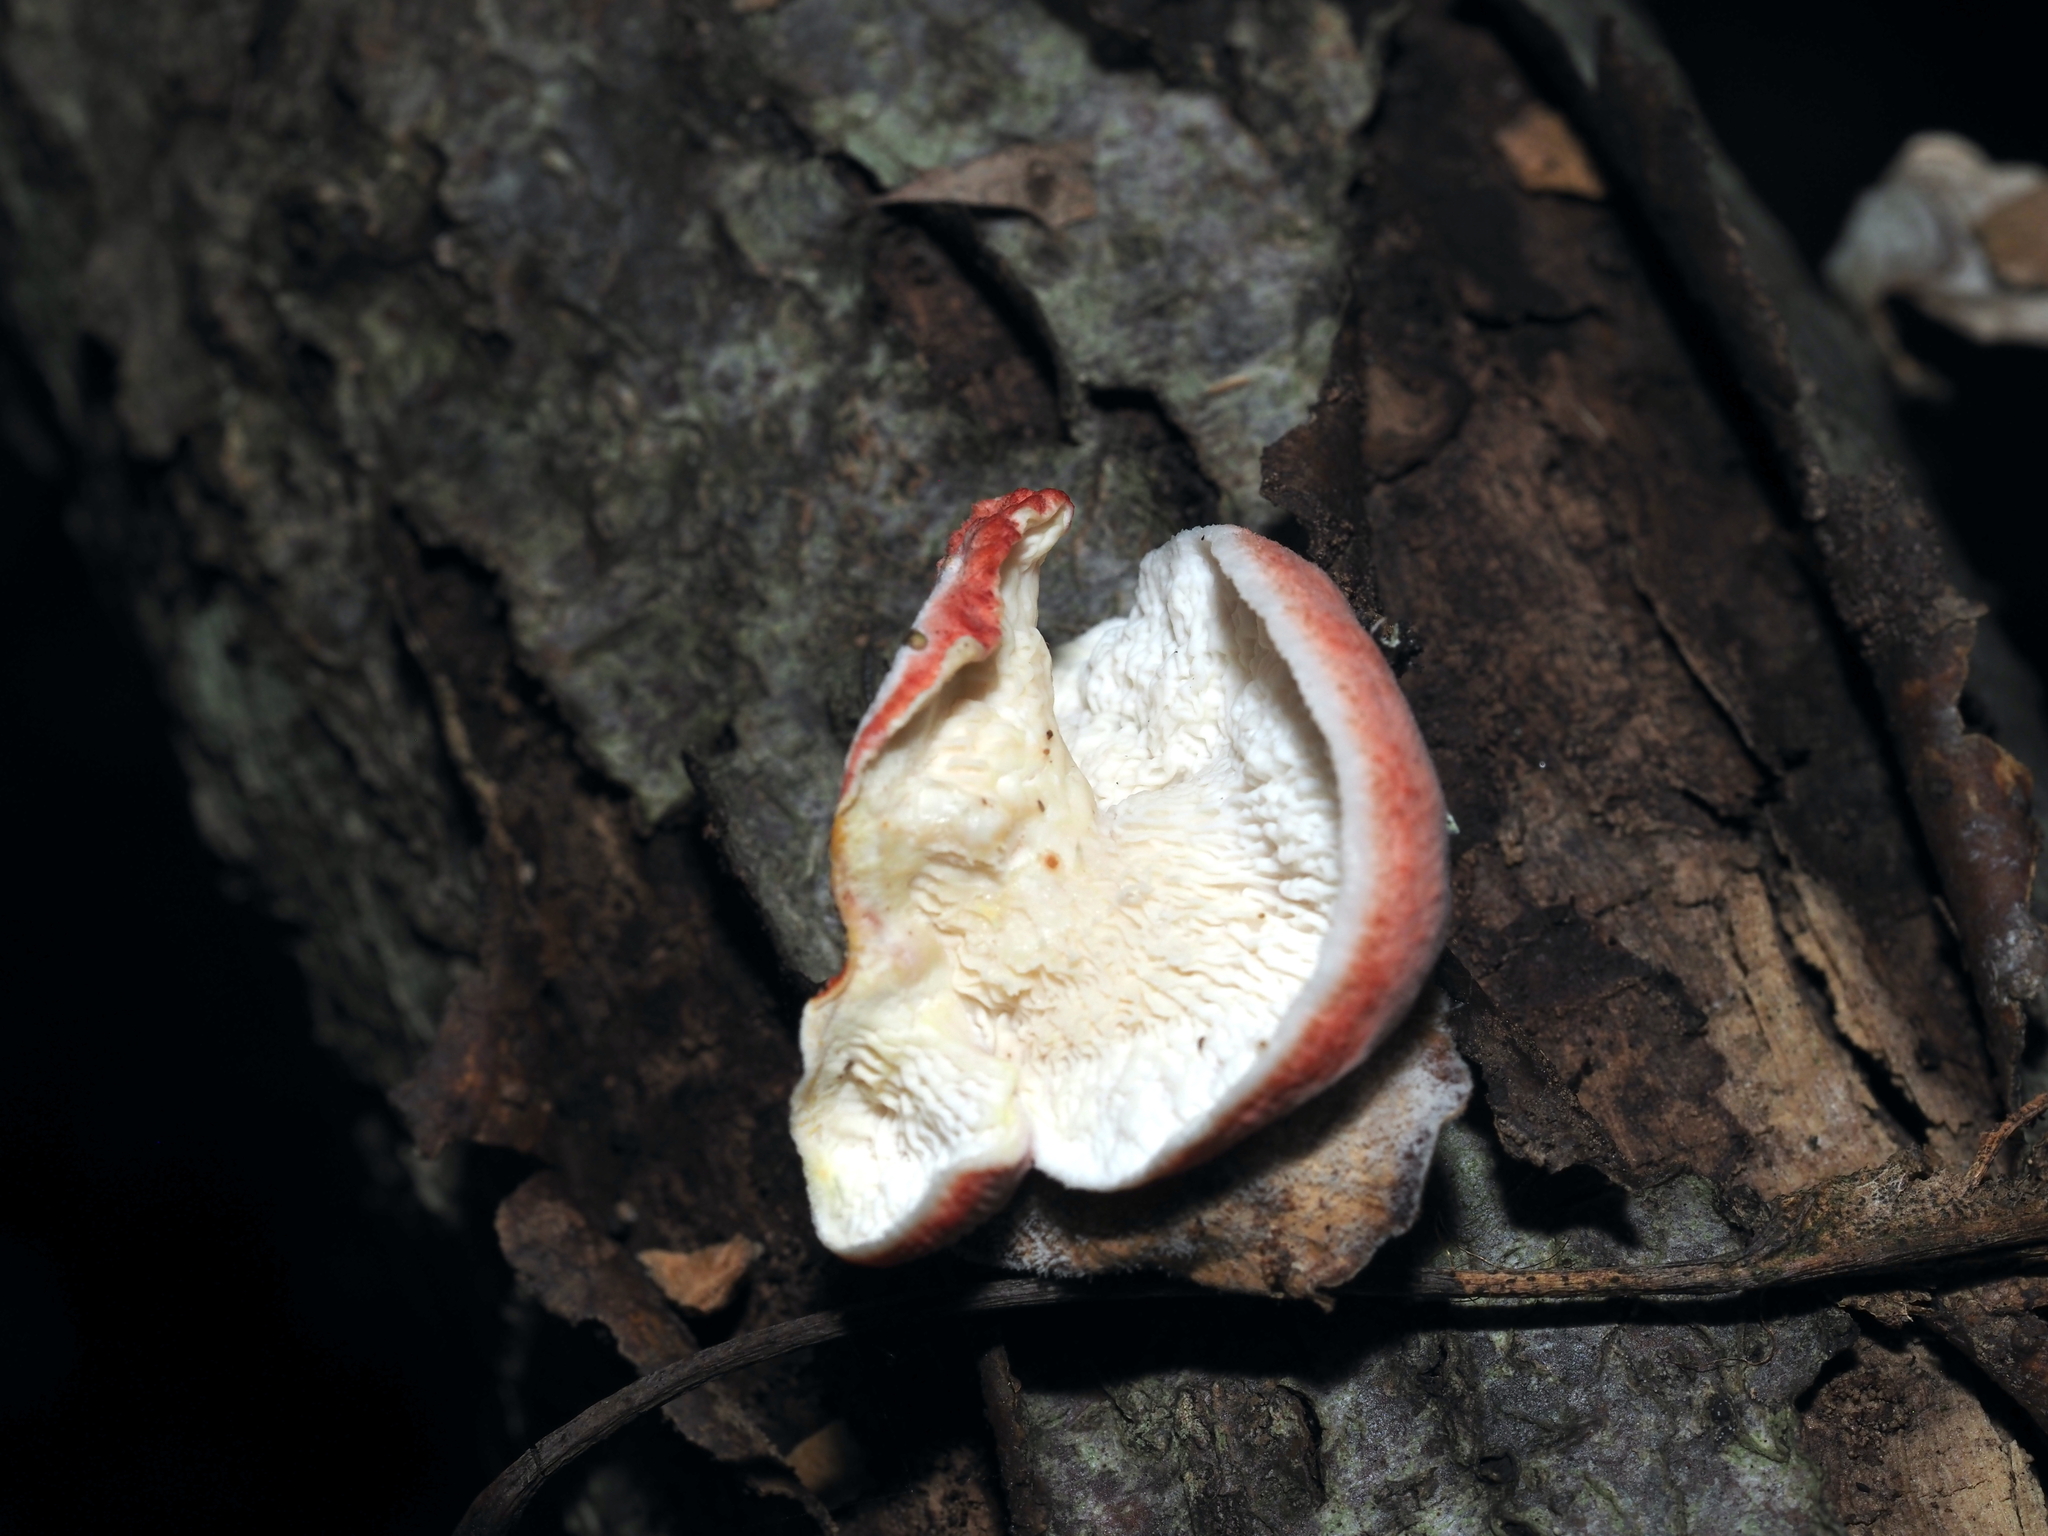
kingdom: Fungi
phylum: Basidiomycota
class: Agaricomycetes
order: Polyporales
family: Irpicaceae
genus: Byssomerulius
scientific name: Byssomerulius incarnatus
